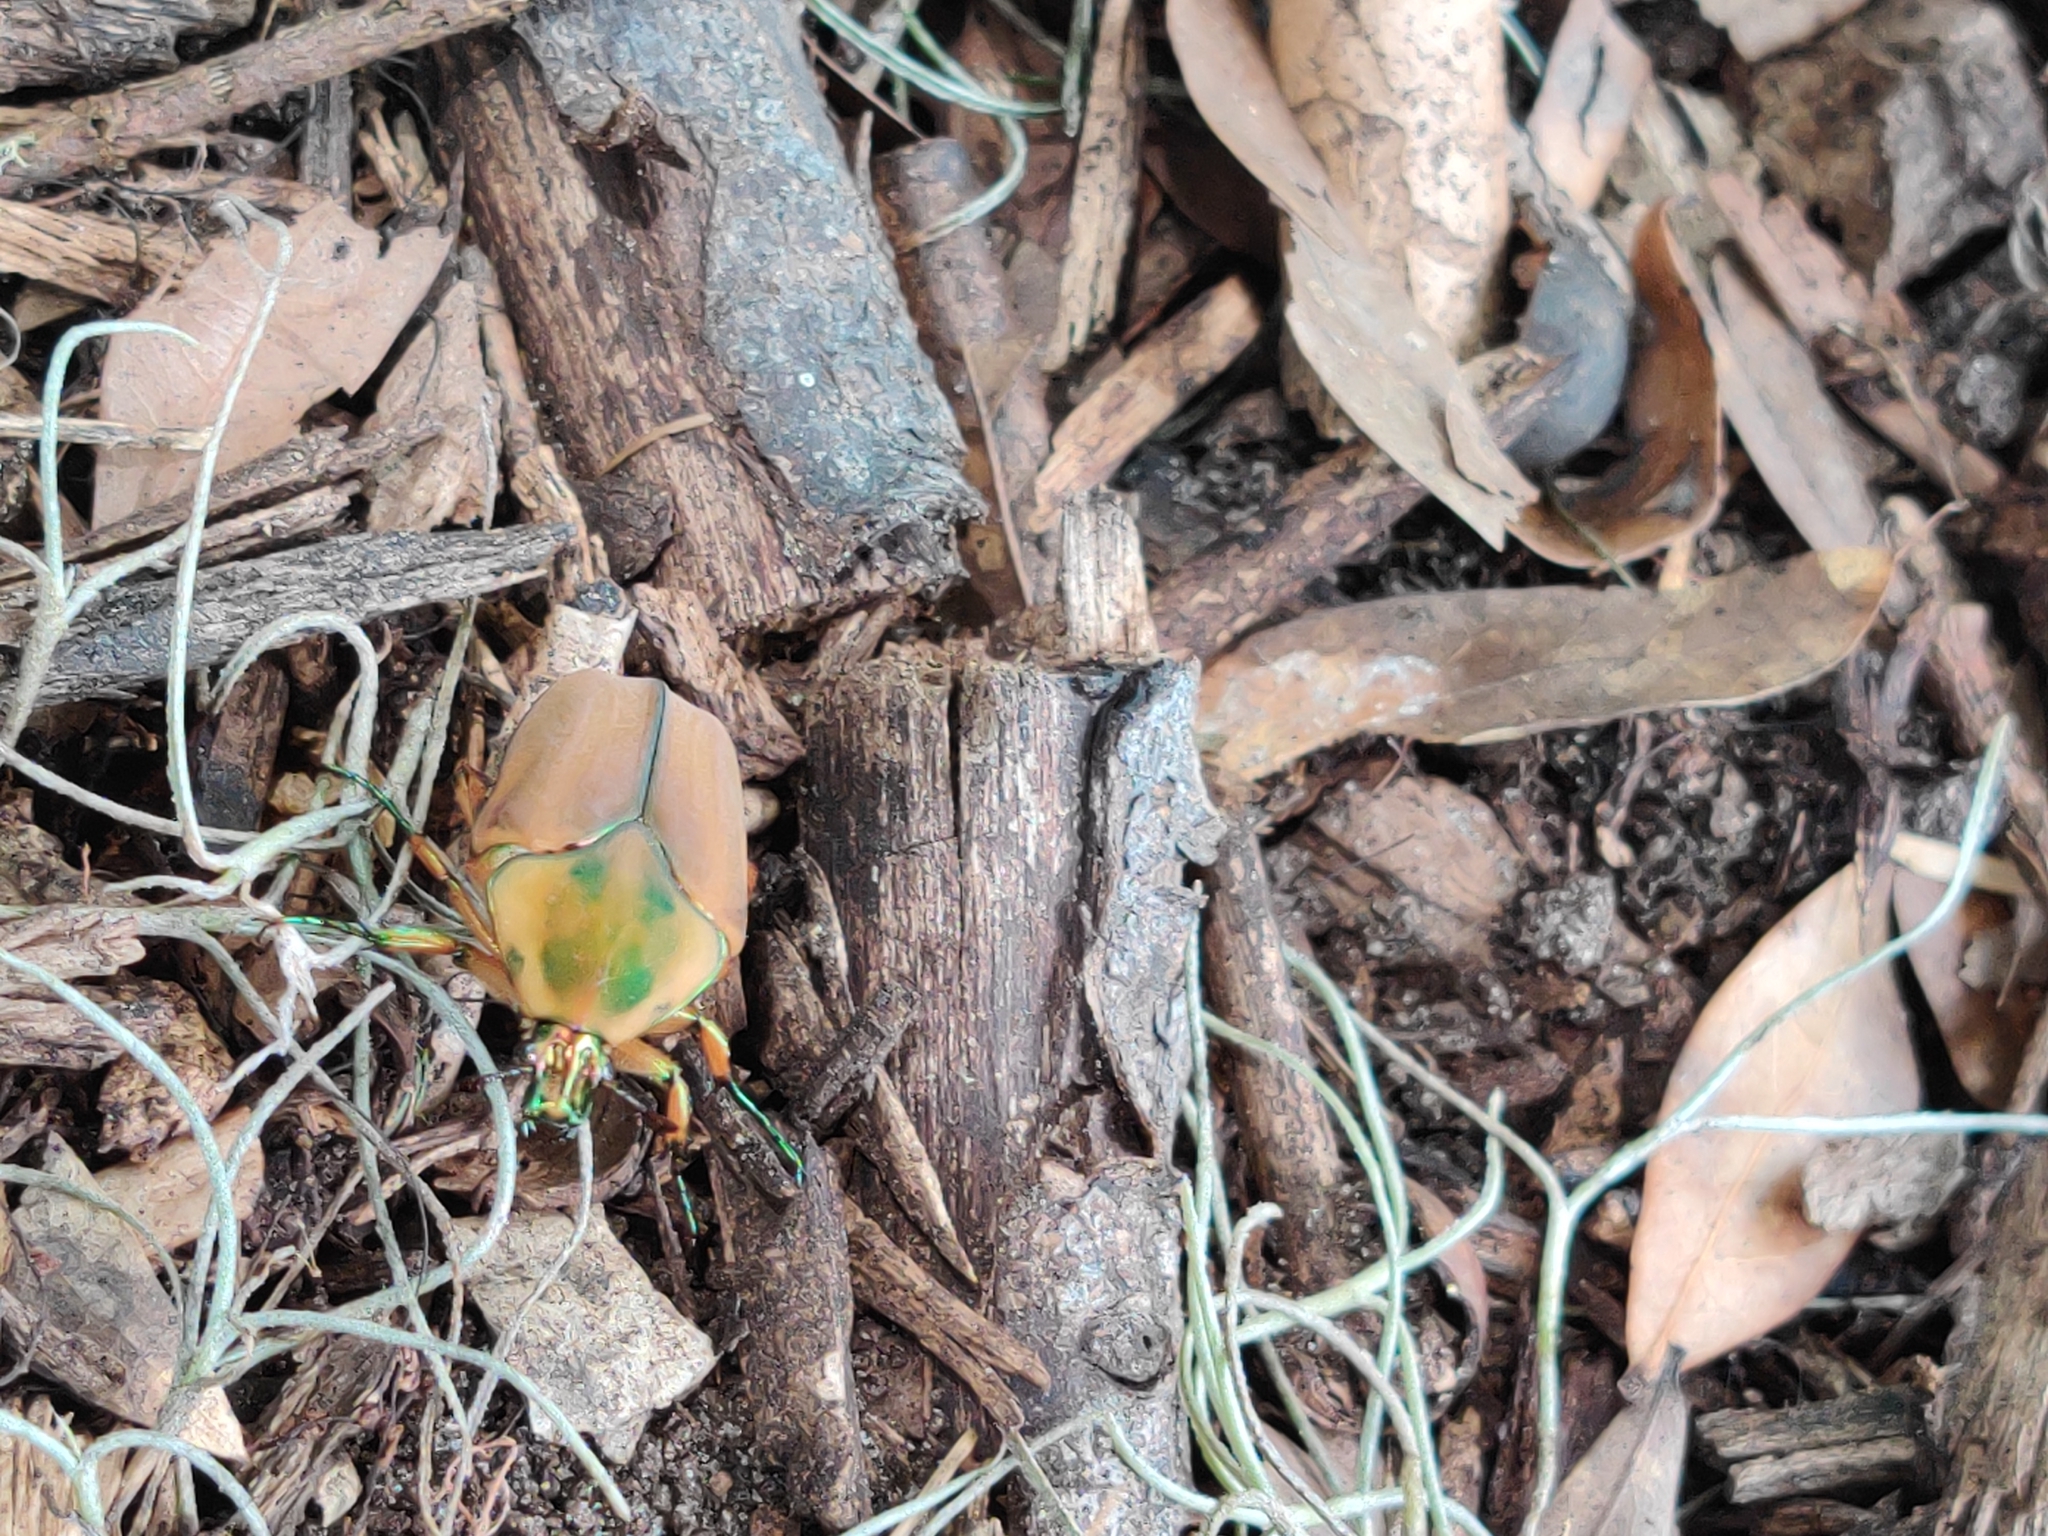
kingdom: Animalia
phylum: Arthropoda
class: Insecta
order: Coleoptera
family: Scarabaeidae
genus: Cotinis
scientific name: Cotinis nitida
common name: Common green june beetle
